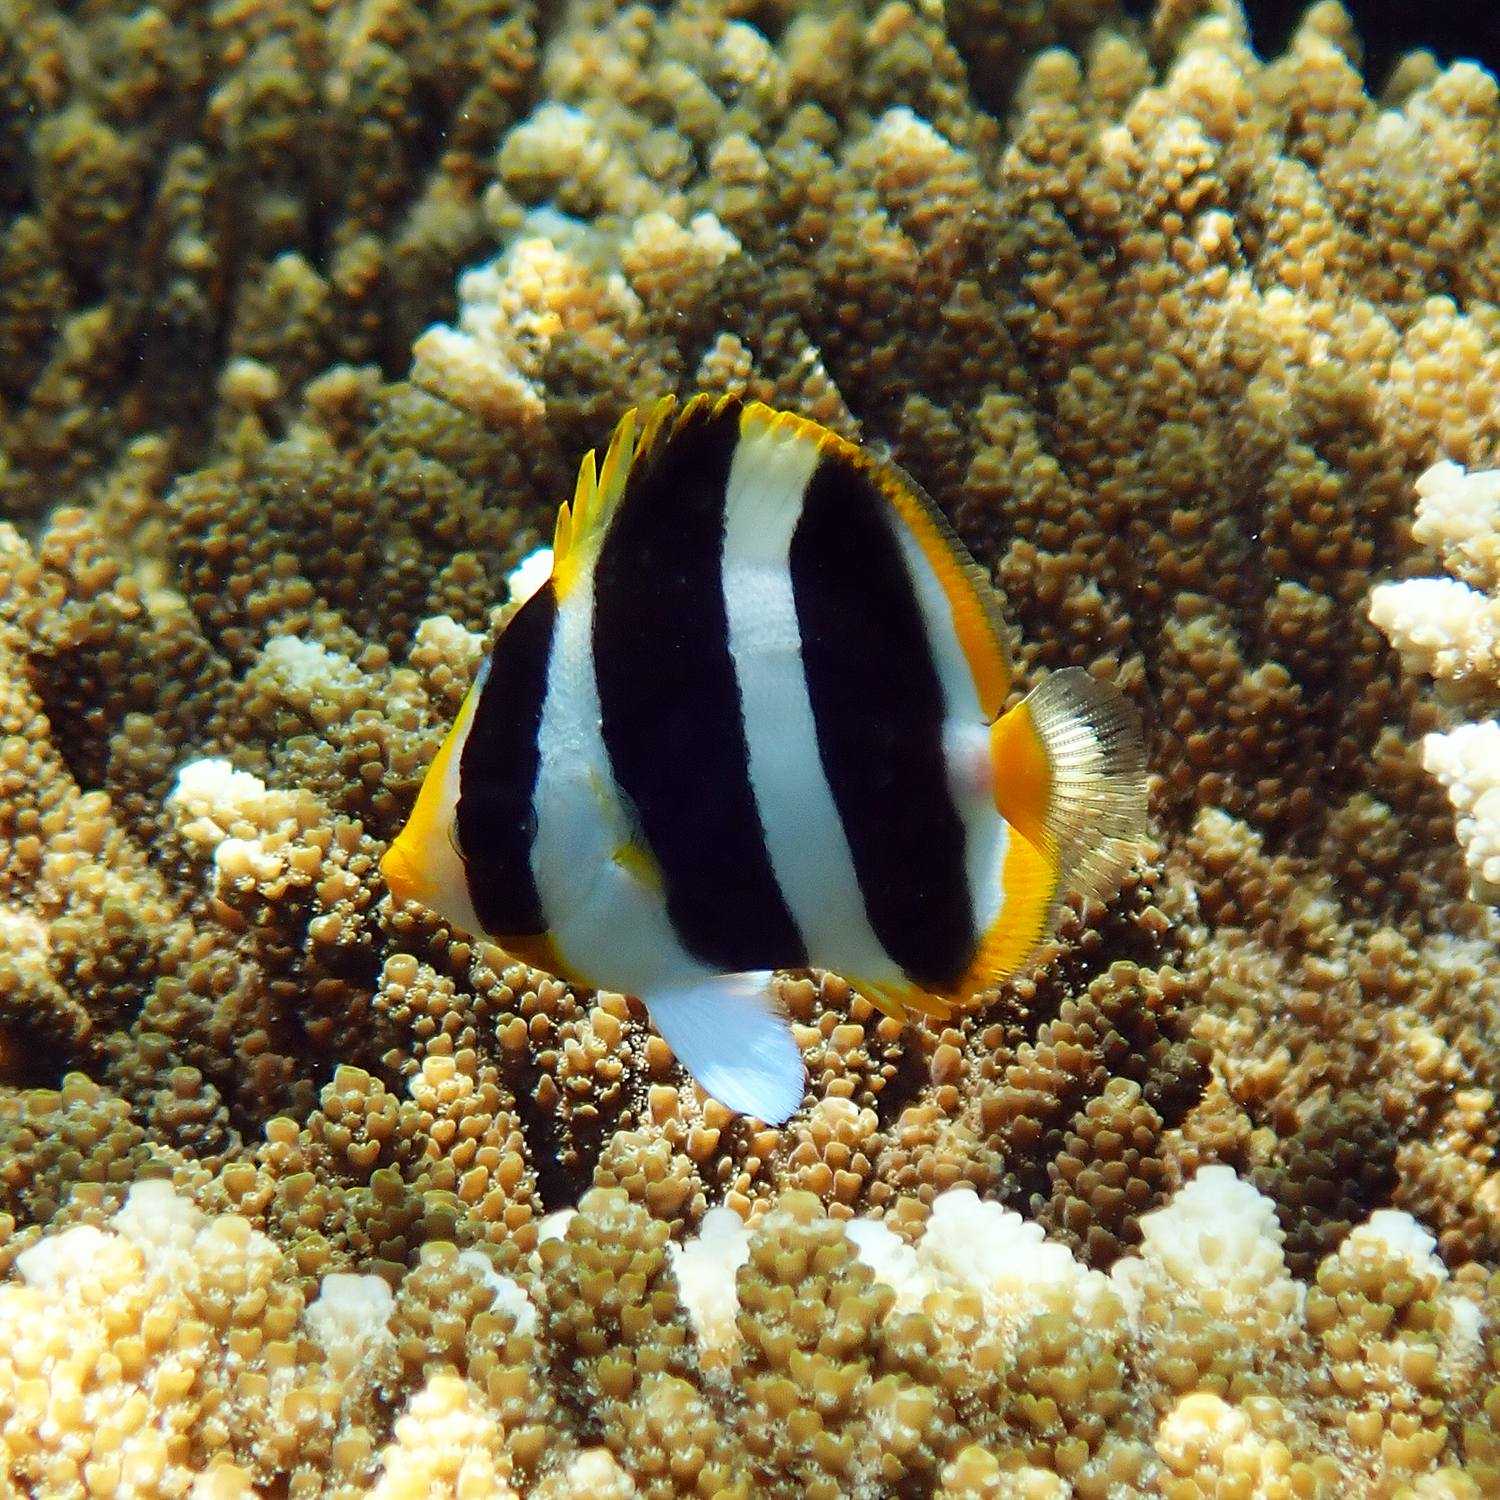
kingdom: Animalia
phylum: Chordata
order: Perciformes
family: Chaetodontidae
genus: Chaetodon
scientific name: Chaetodon tricinctus
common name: Three-striped butterflyfish
